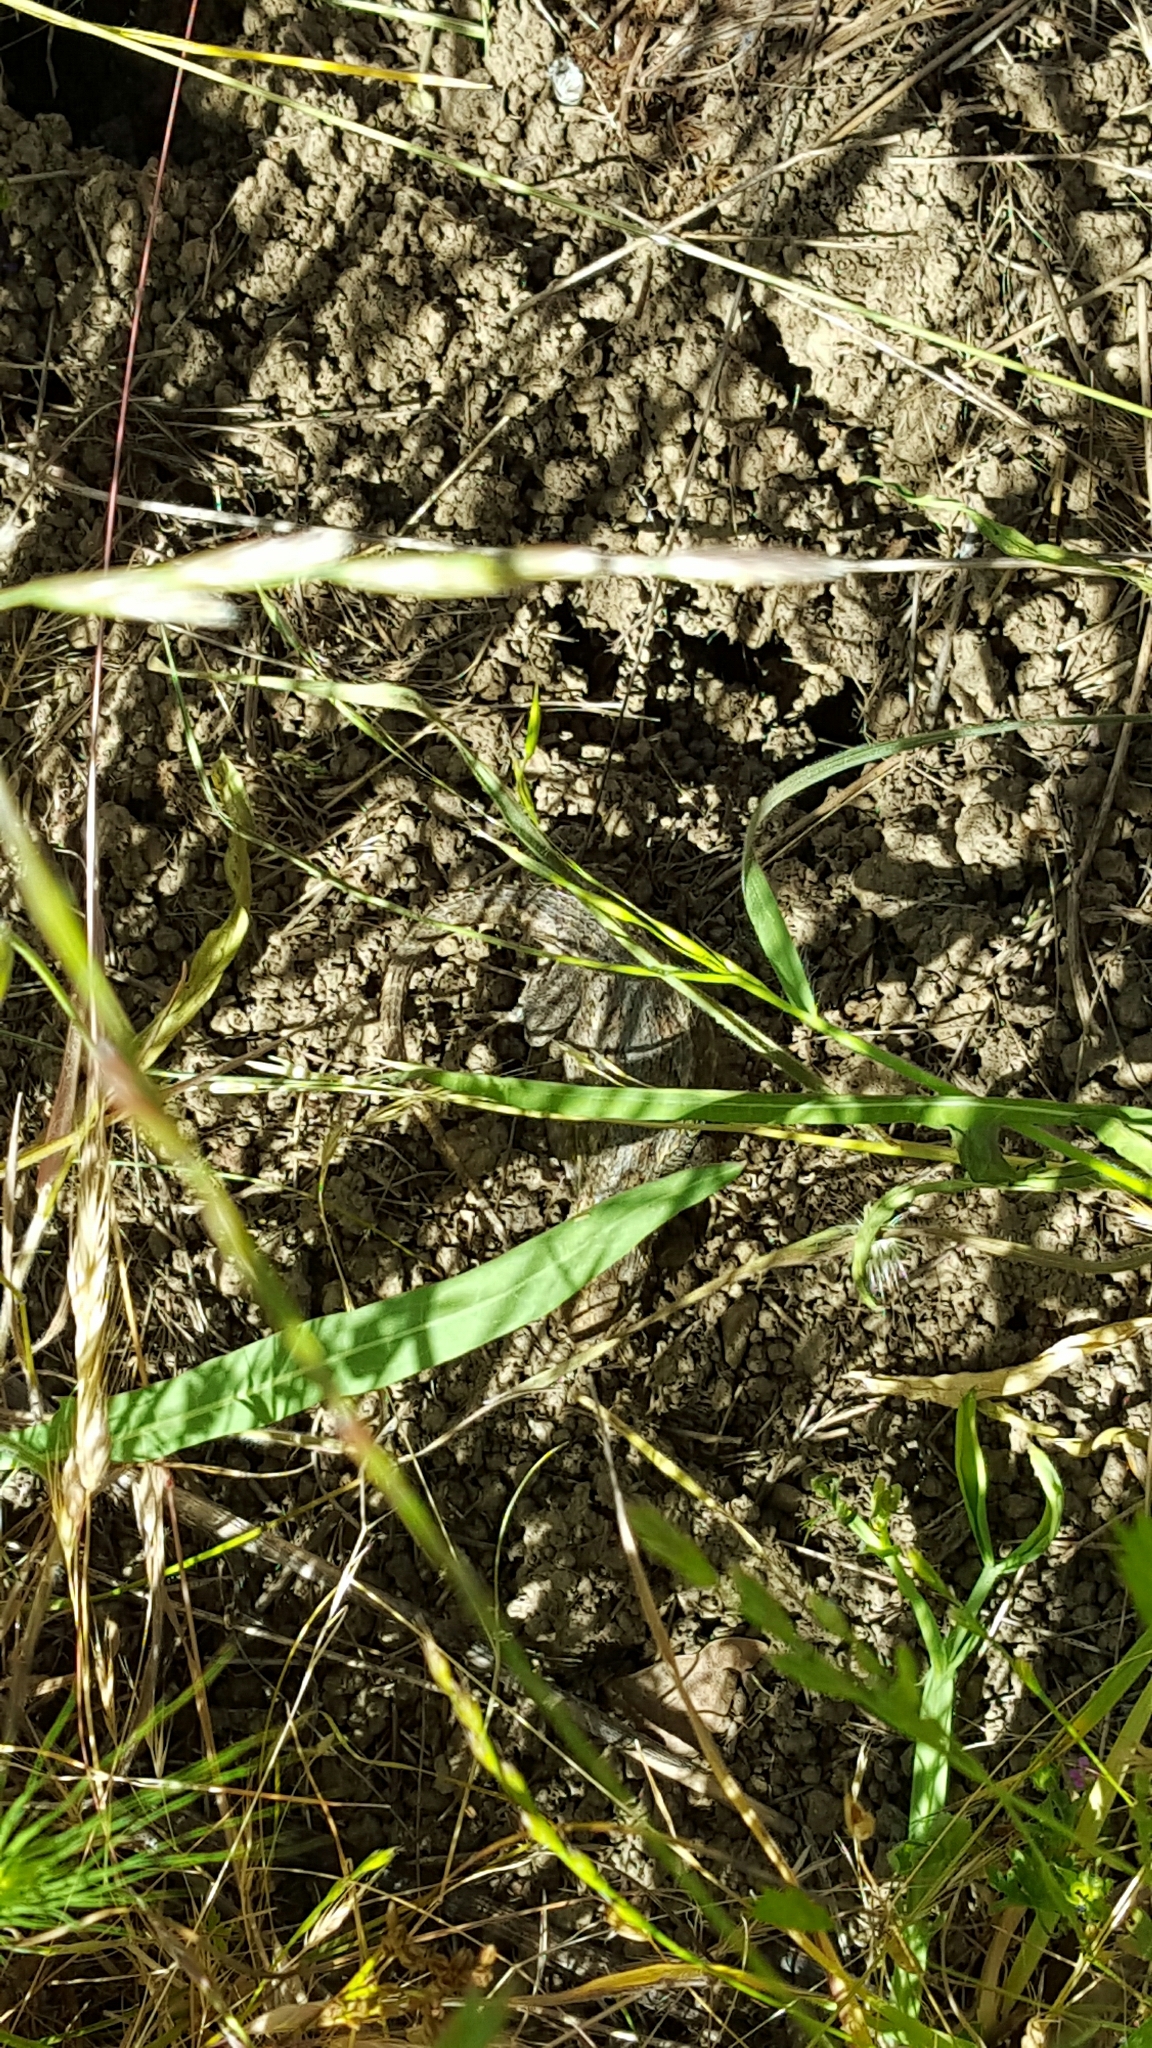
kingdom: Animalia
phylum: Chordata
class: Squamata
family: Phrynosomatidae
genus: Sceloporus
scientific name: Sceloporus occidentalis
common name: Western fence lizard
